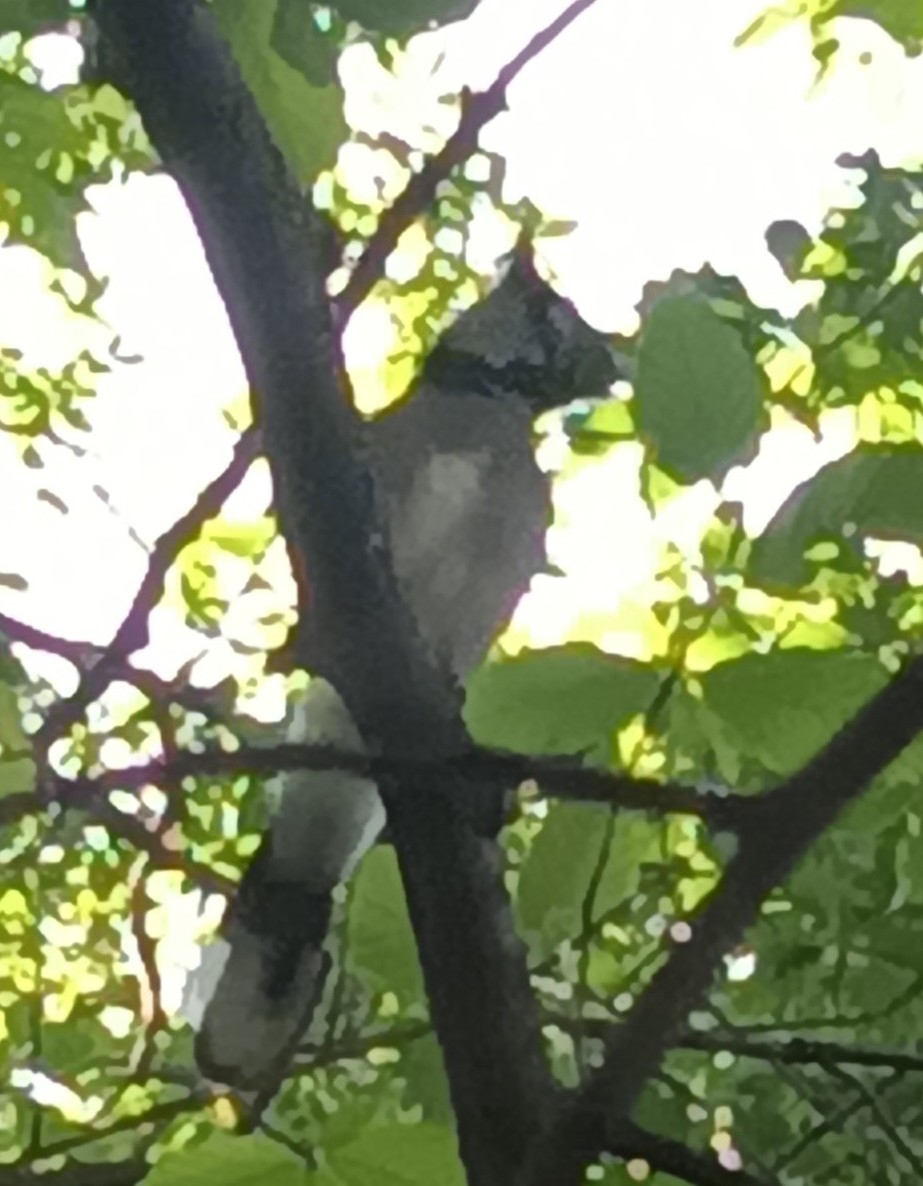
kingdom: Animalia
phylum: Chordata
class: Aves
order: Passeriformes
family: Corvidae
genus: Cyanocitta
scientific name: Cyanocitta cristata
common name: Blue jay
